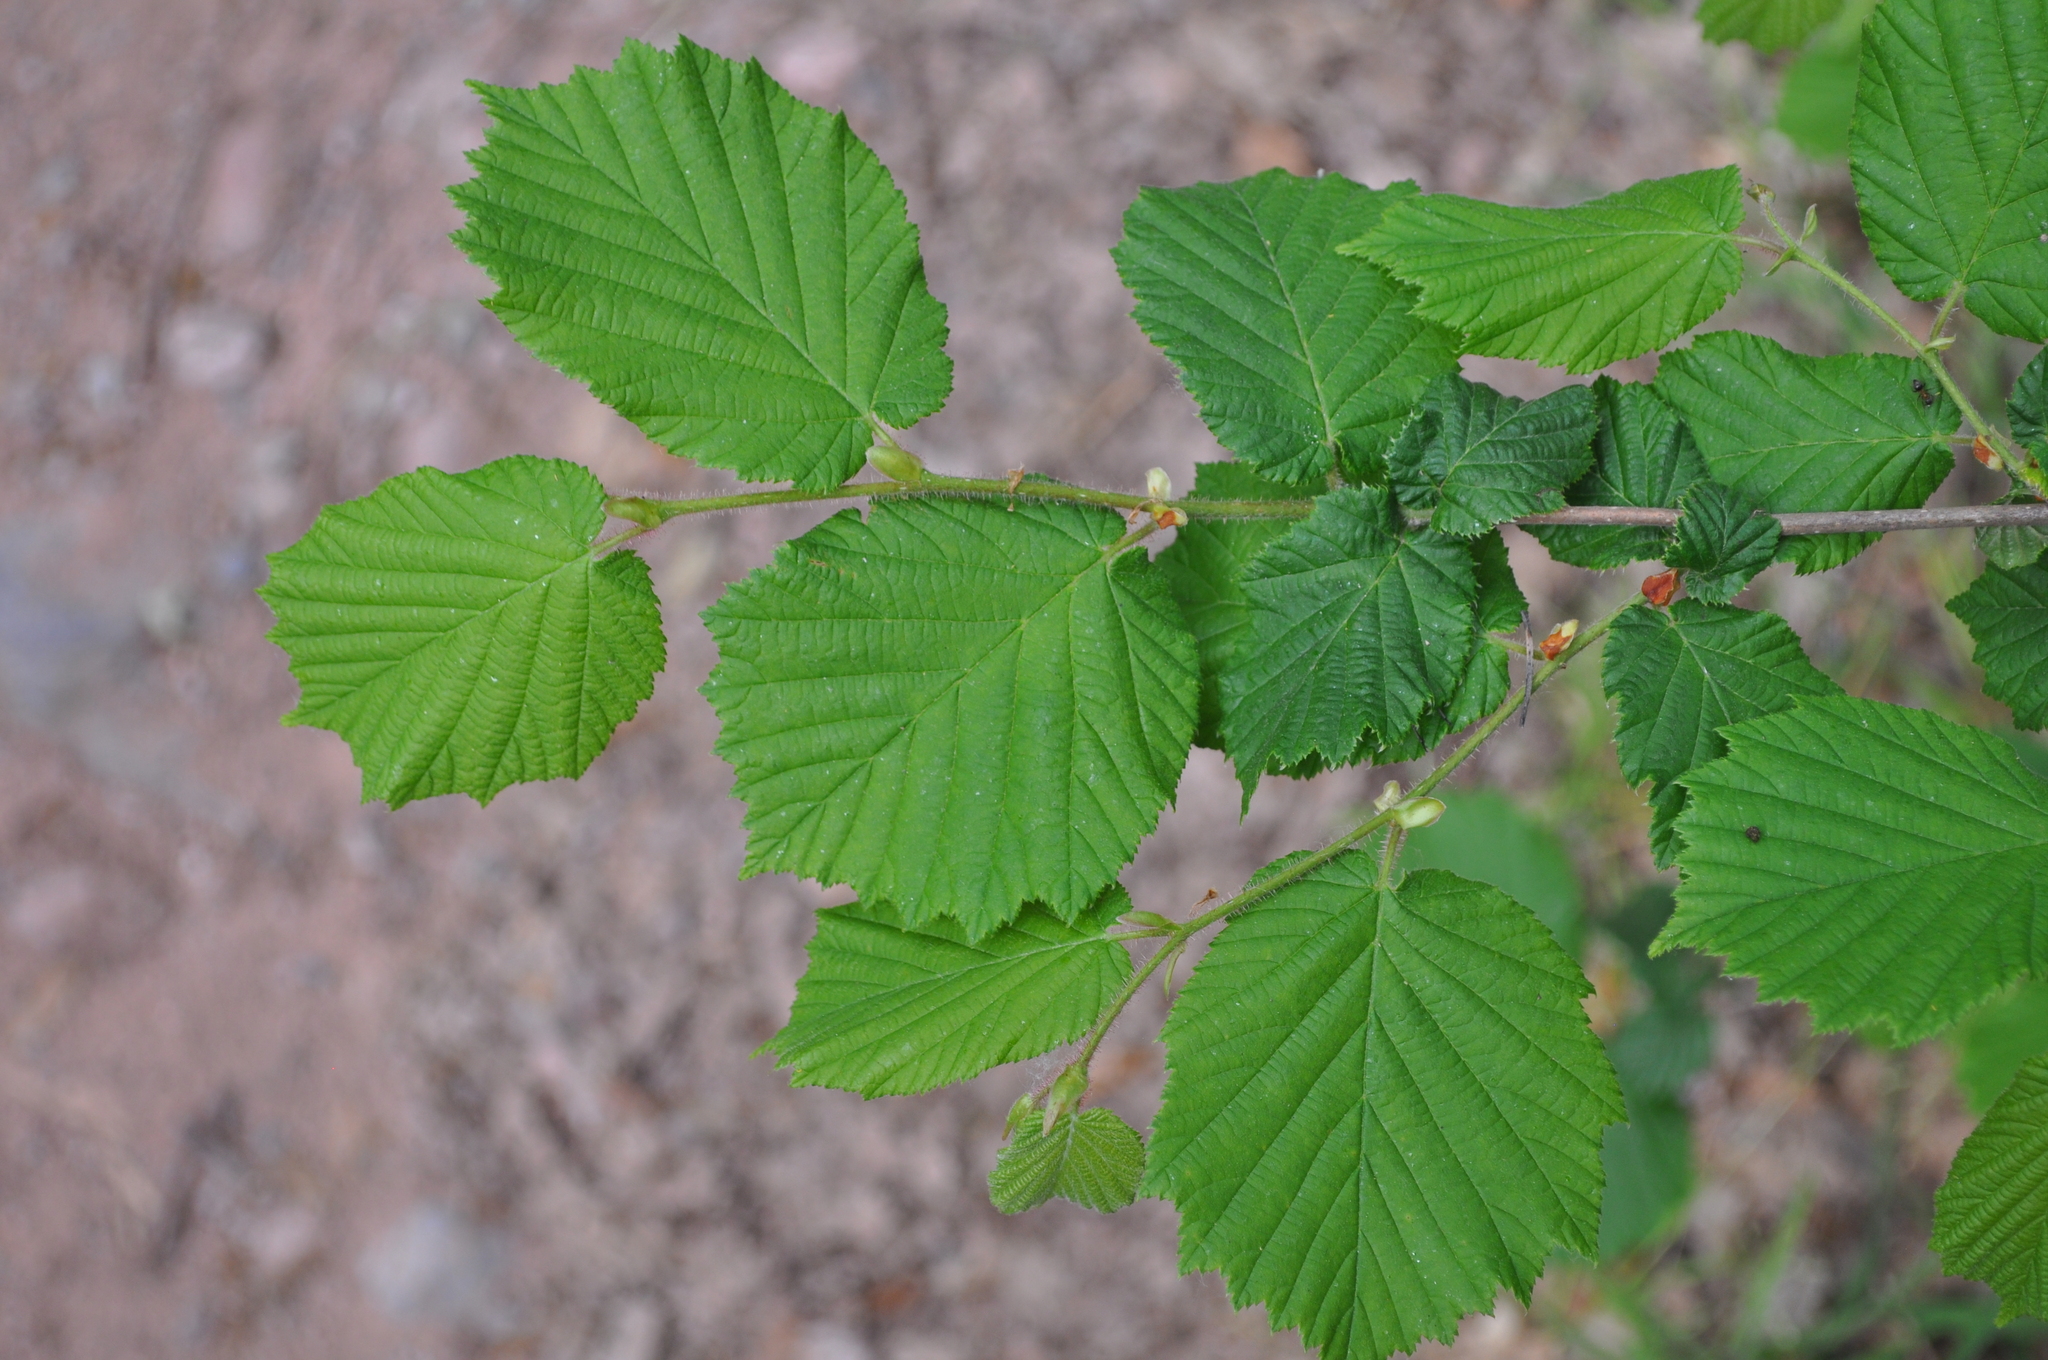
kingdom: Plantae
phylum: Tracheophyta
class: Magnoliopsida
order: Fagales
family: Betulaceae
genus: Corylus
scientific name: Corylus avellana
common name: European hazel
